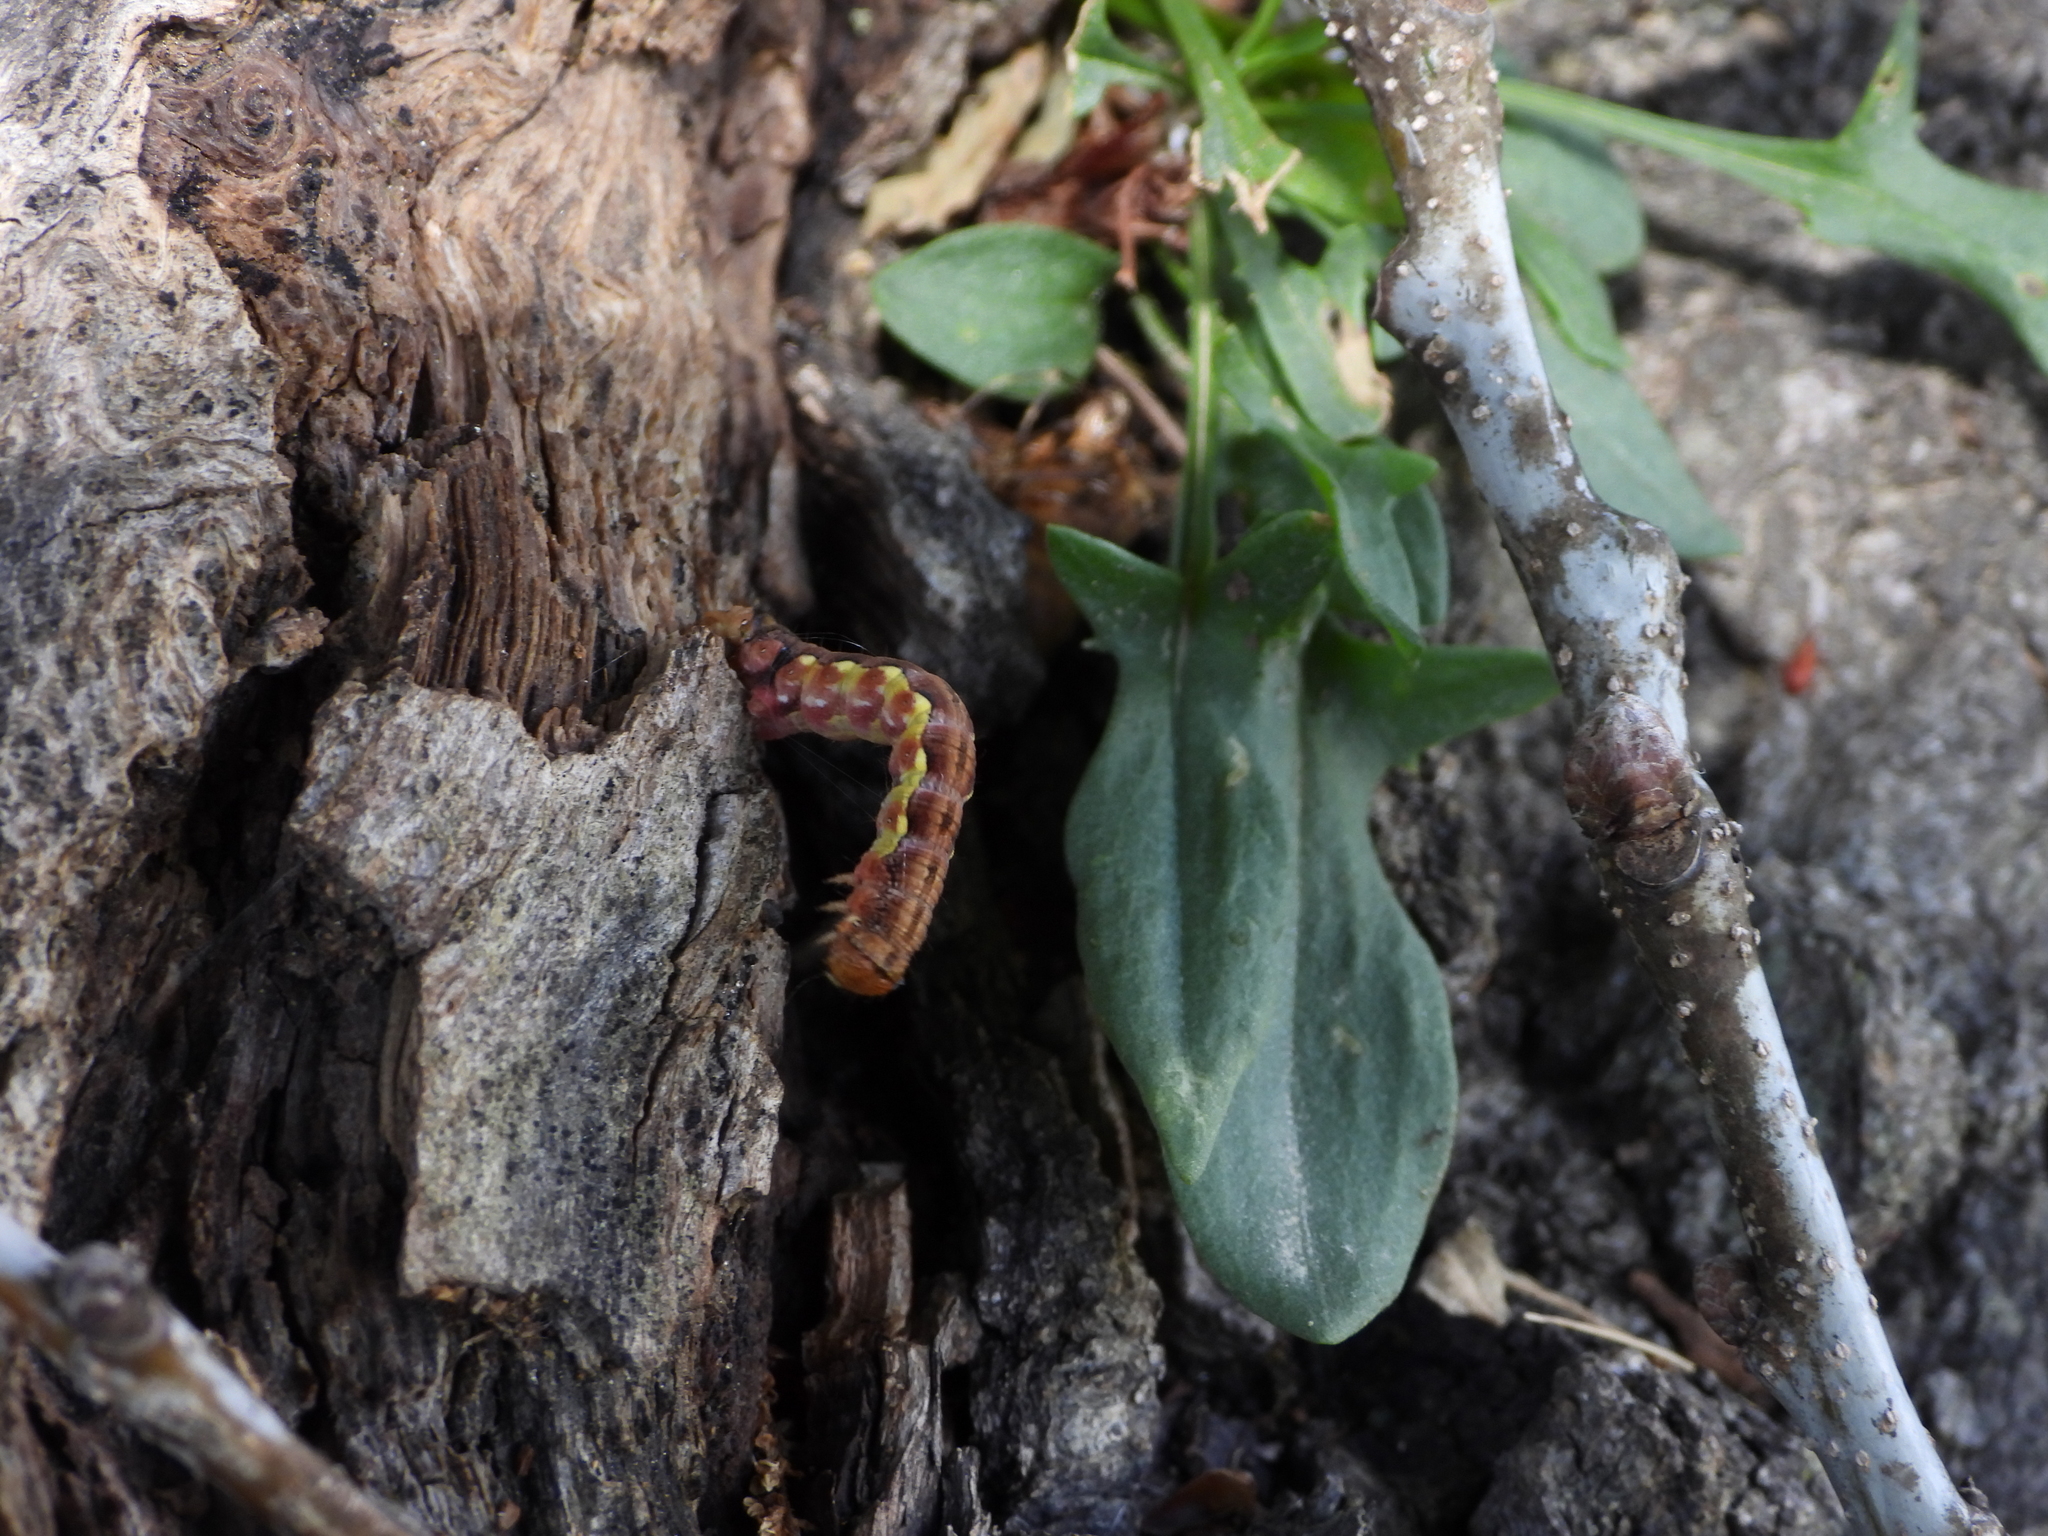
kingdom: Animalia
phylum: Arthropoda
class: Insecta
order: Lepidoptera
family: Geometridae
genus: Erannis
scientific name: Erannis defoliaria
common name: Mottled umber
